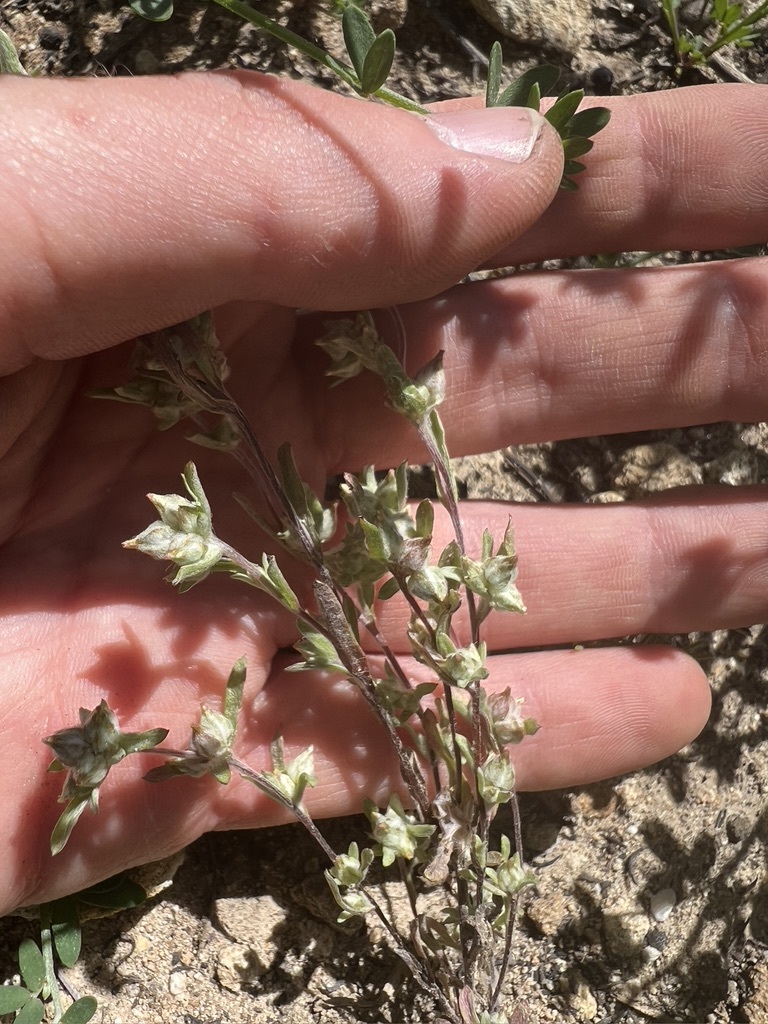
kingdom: Plantae
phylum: Tracheophyta
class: Magnoliopsida
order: Asterales
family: Asteraceae
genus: Logfia
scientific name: Logfia californica
